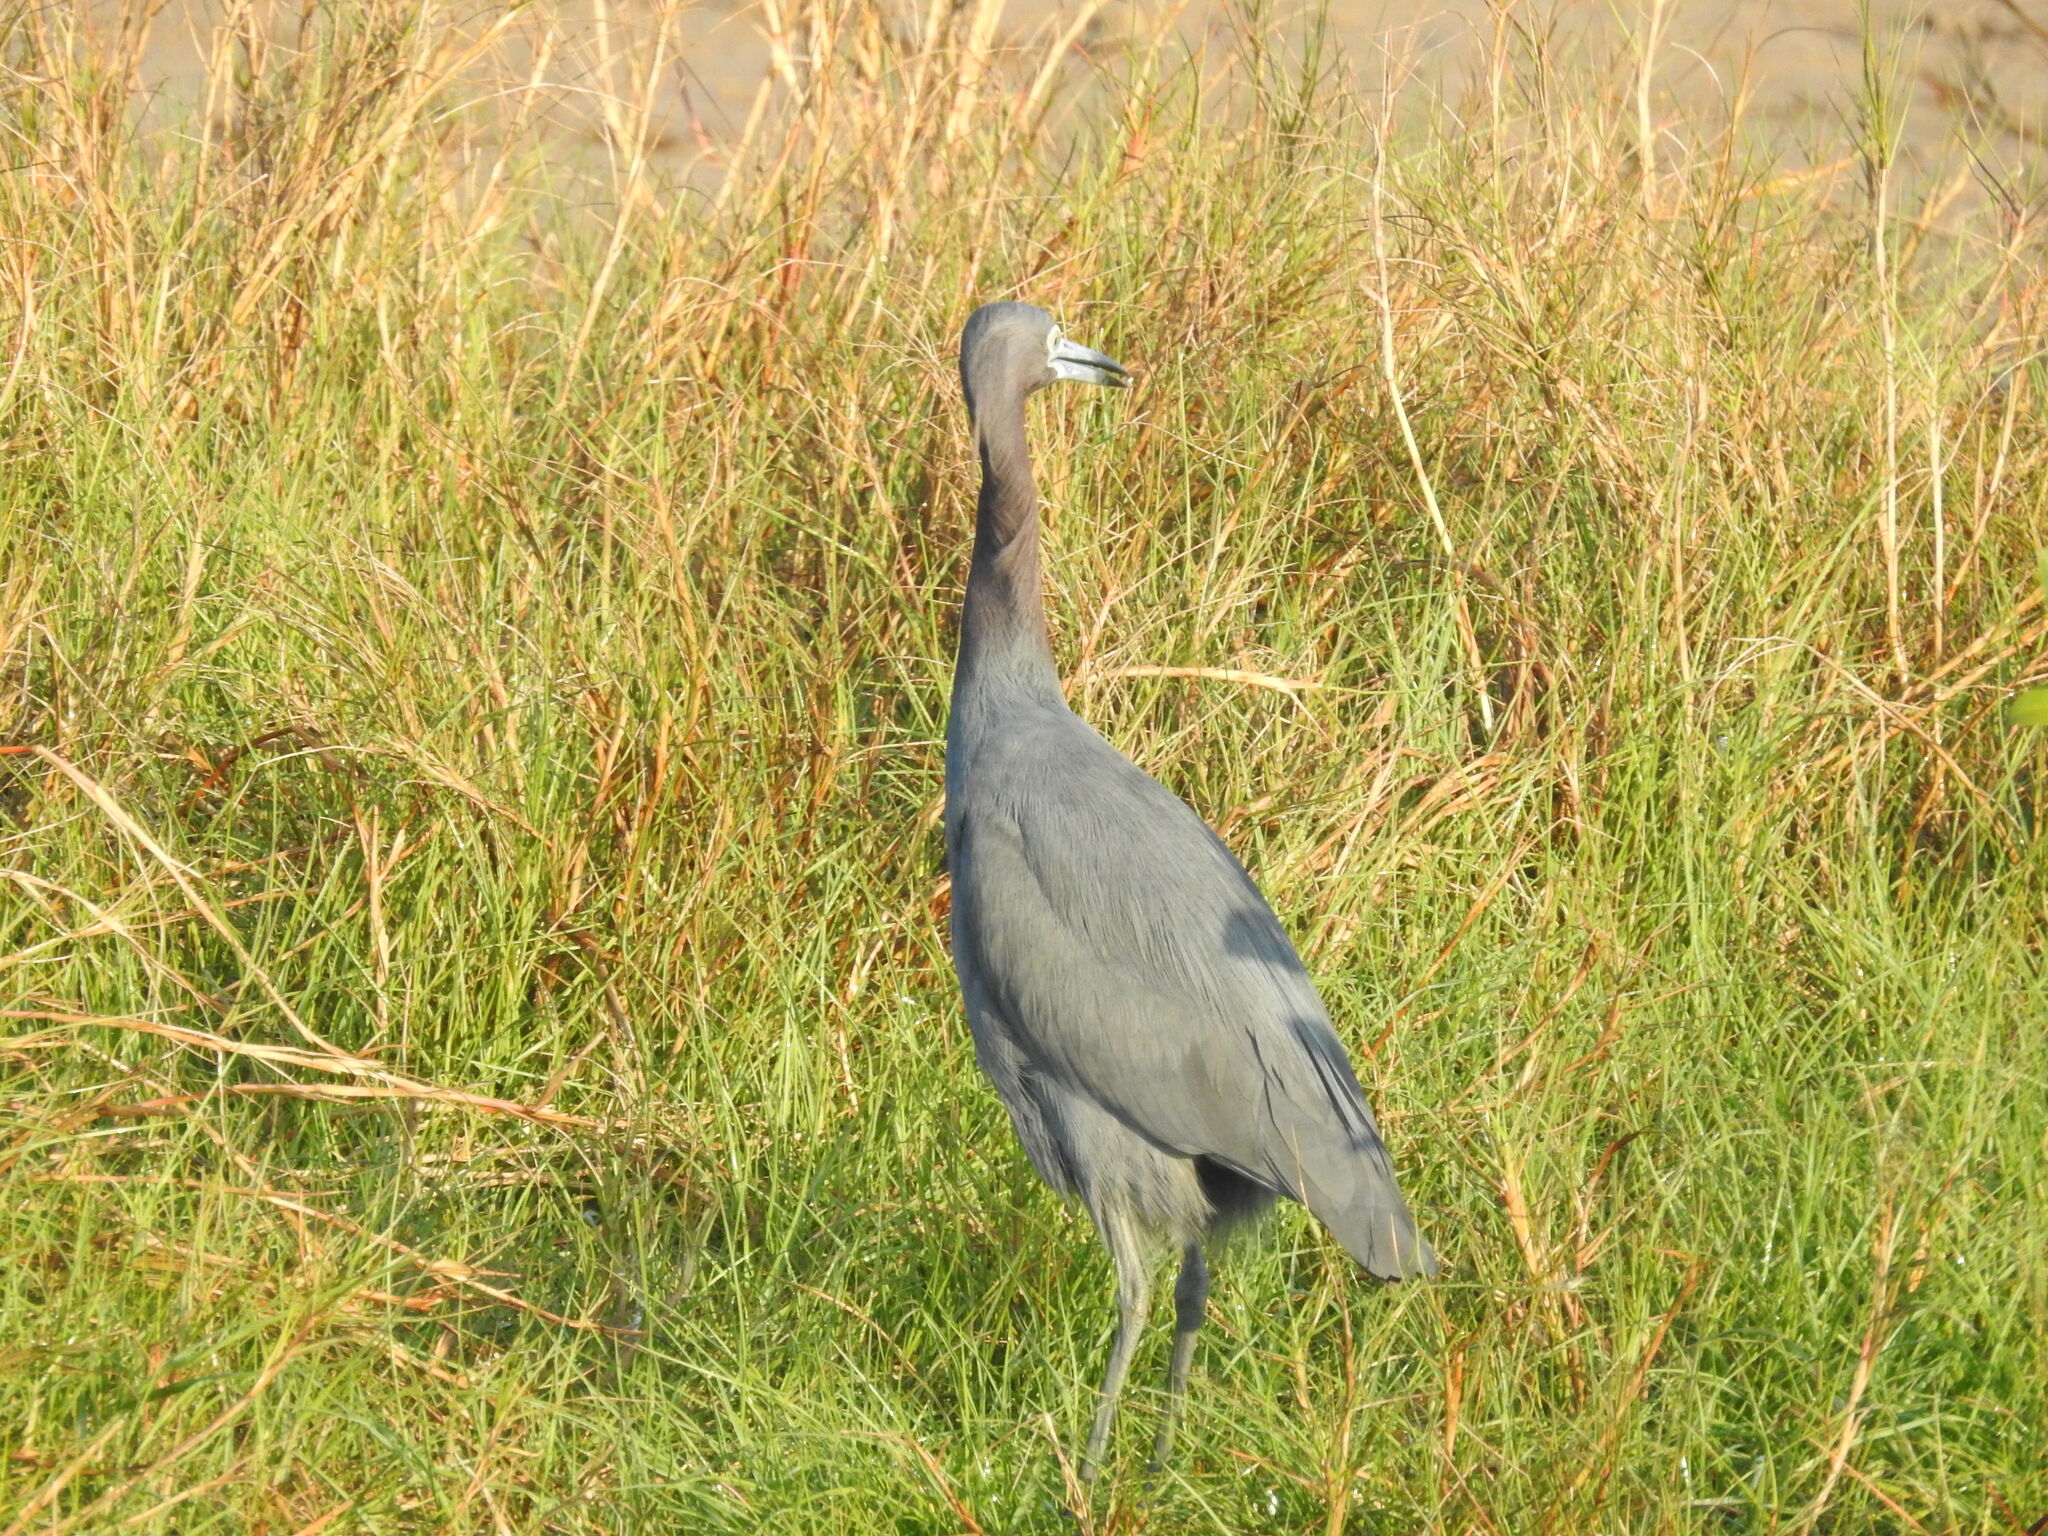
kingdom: Animalia
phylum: Chordata
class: Aves
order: Pelecaniformes
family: Ardeidae
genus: Egretta
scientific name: Egretta caerulea
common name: Little blue heron
